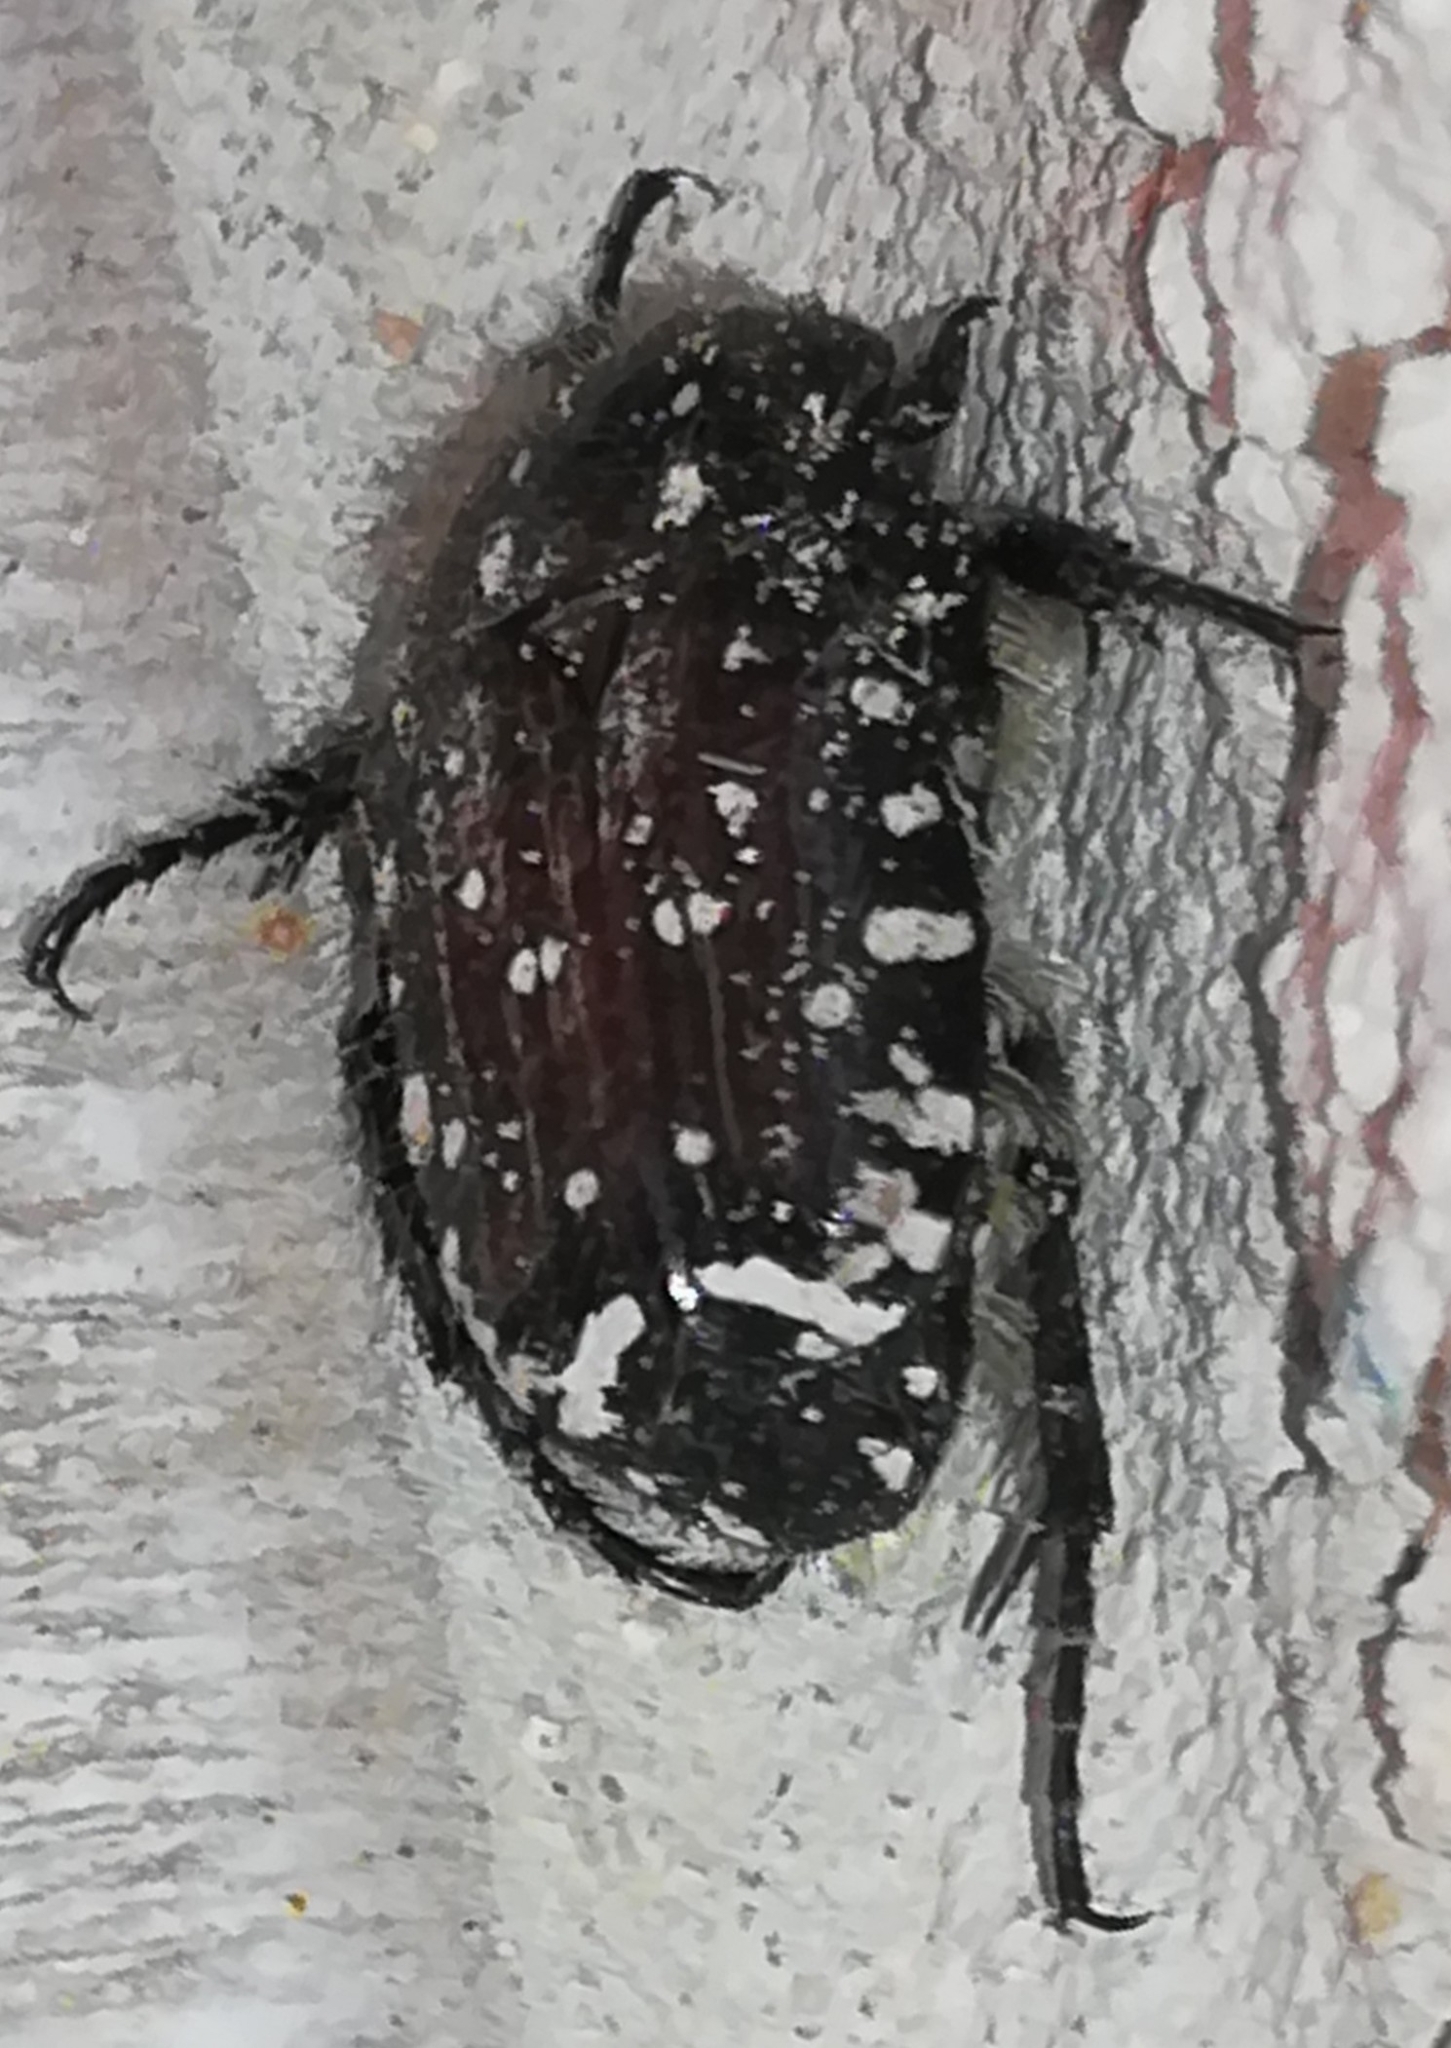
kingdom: Animalia
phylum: Arthropoda
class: Insecta
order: Coleoptera
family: Scarabaeidae
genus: Oxythyrea
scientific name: Oxythyrea funesta
